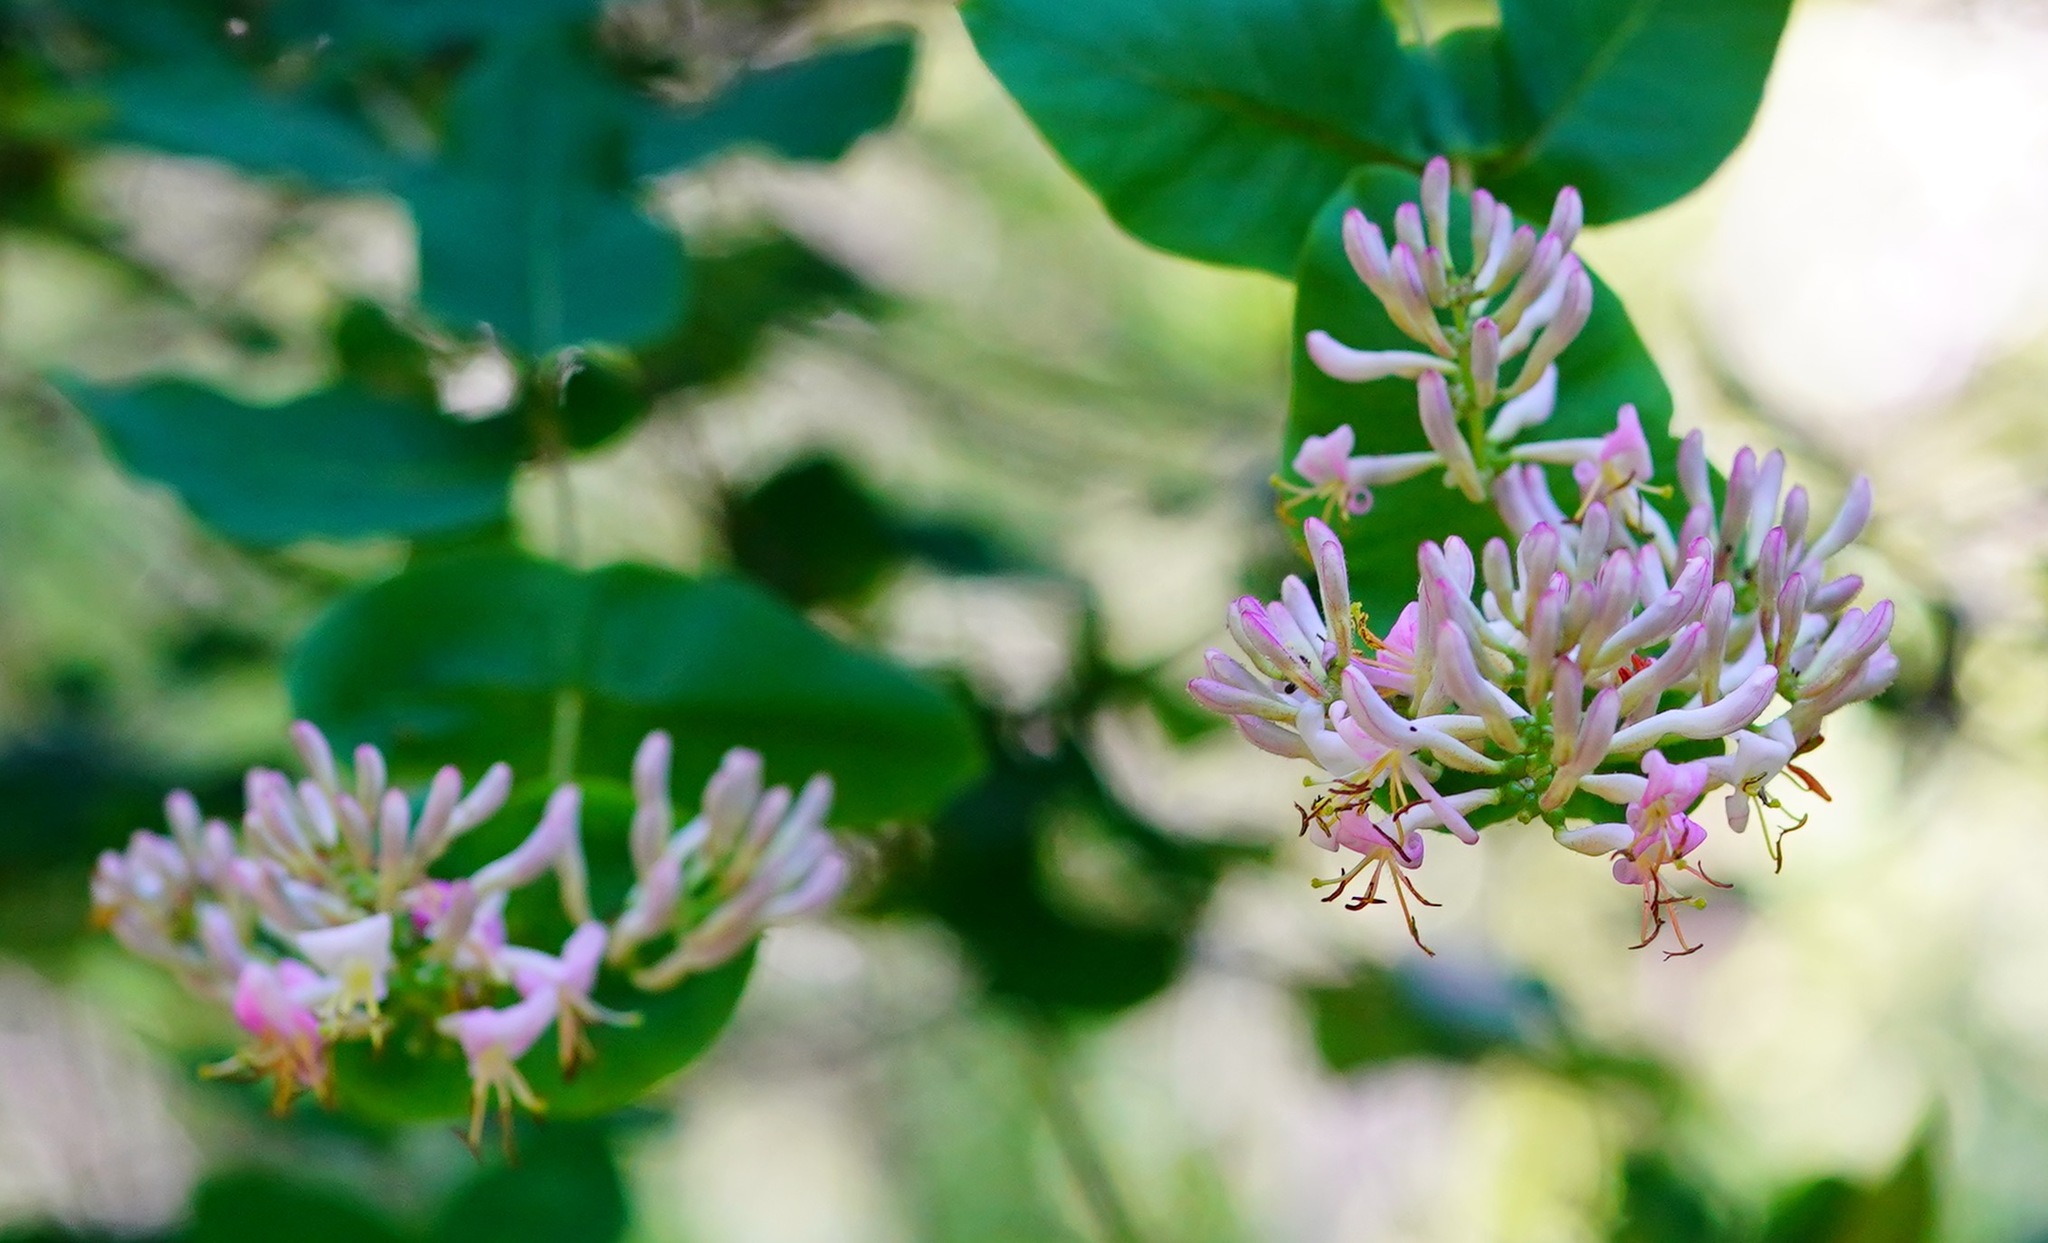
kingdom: Plantae
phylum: Tracheophyta
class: Magnoliopsida
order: Dipsacales
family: Caprifoliaceae
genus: Lonicera
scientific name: Lonicera hispidula
